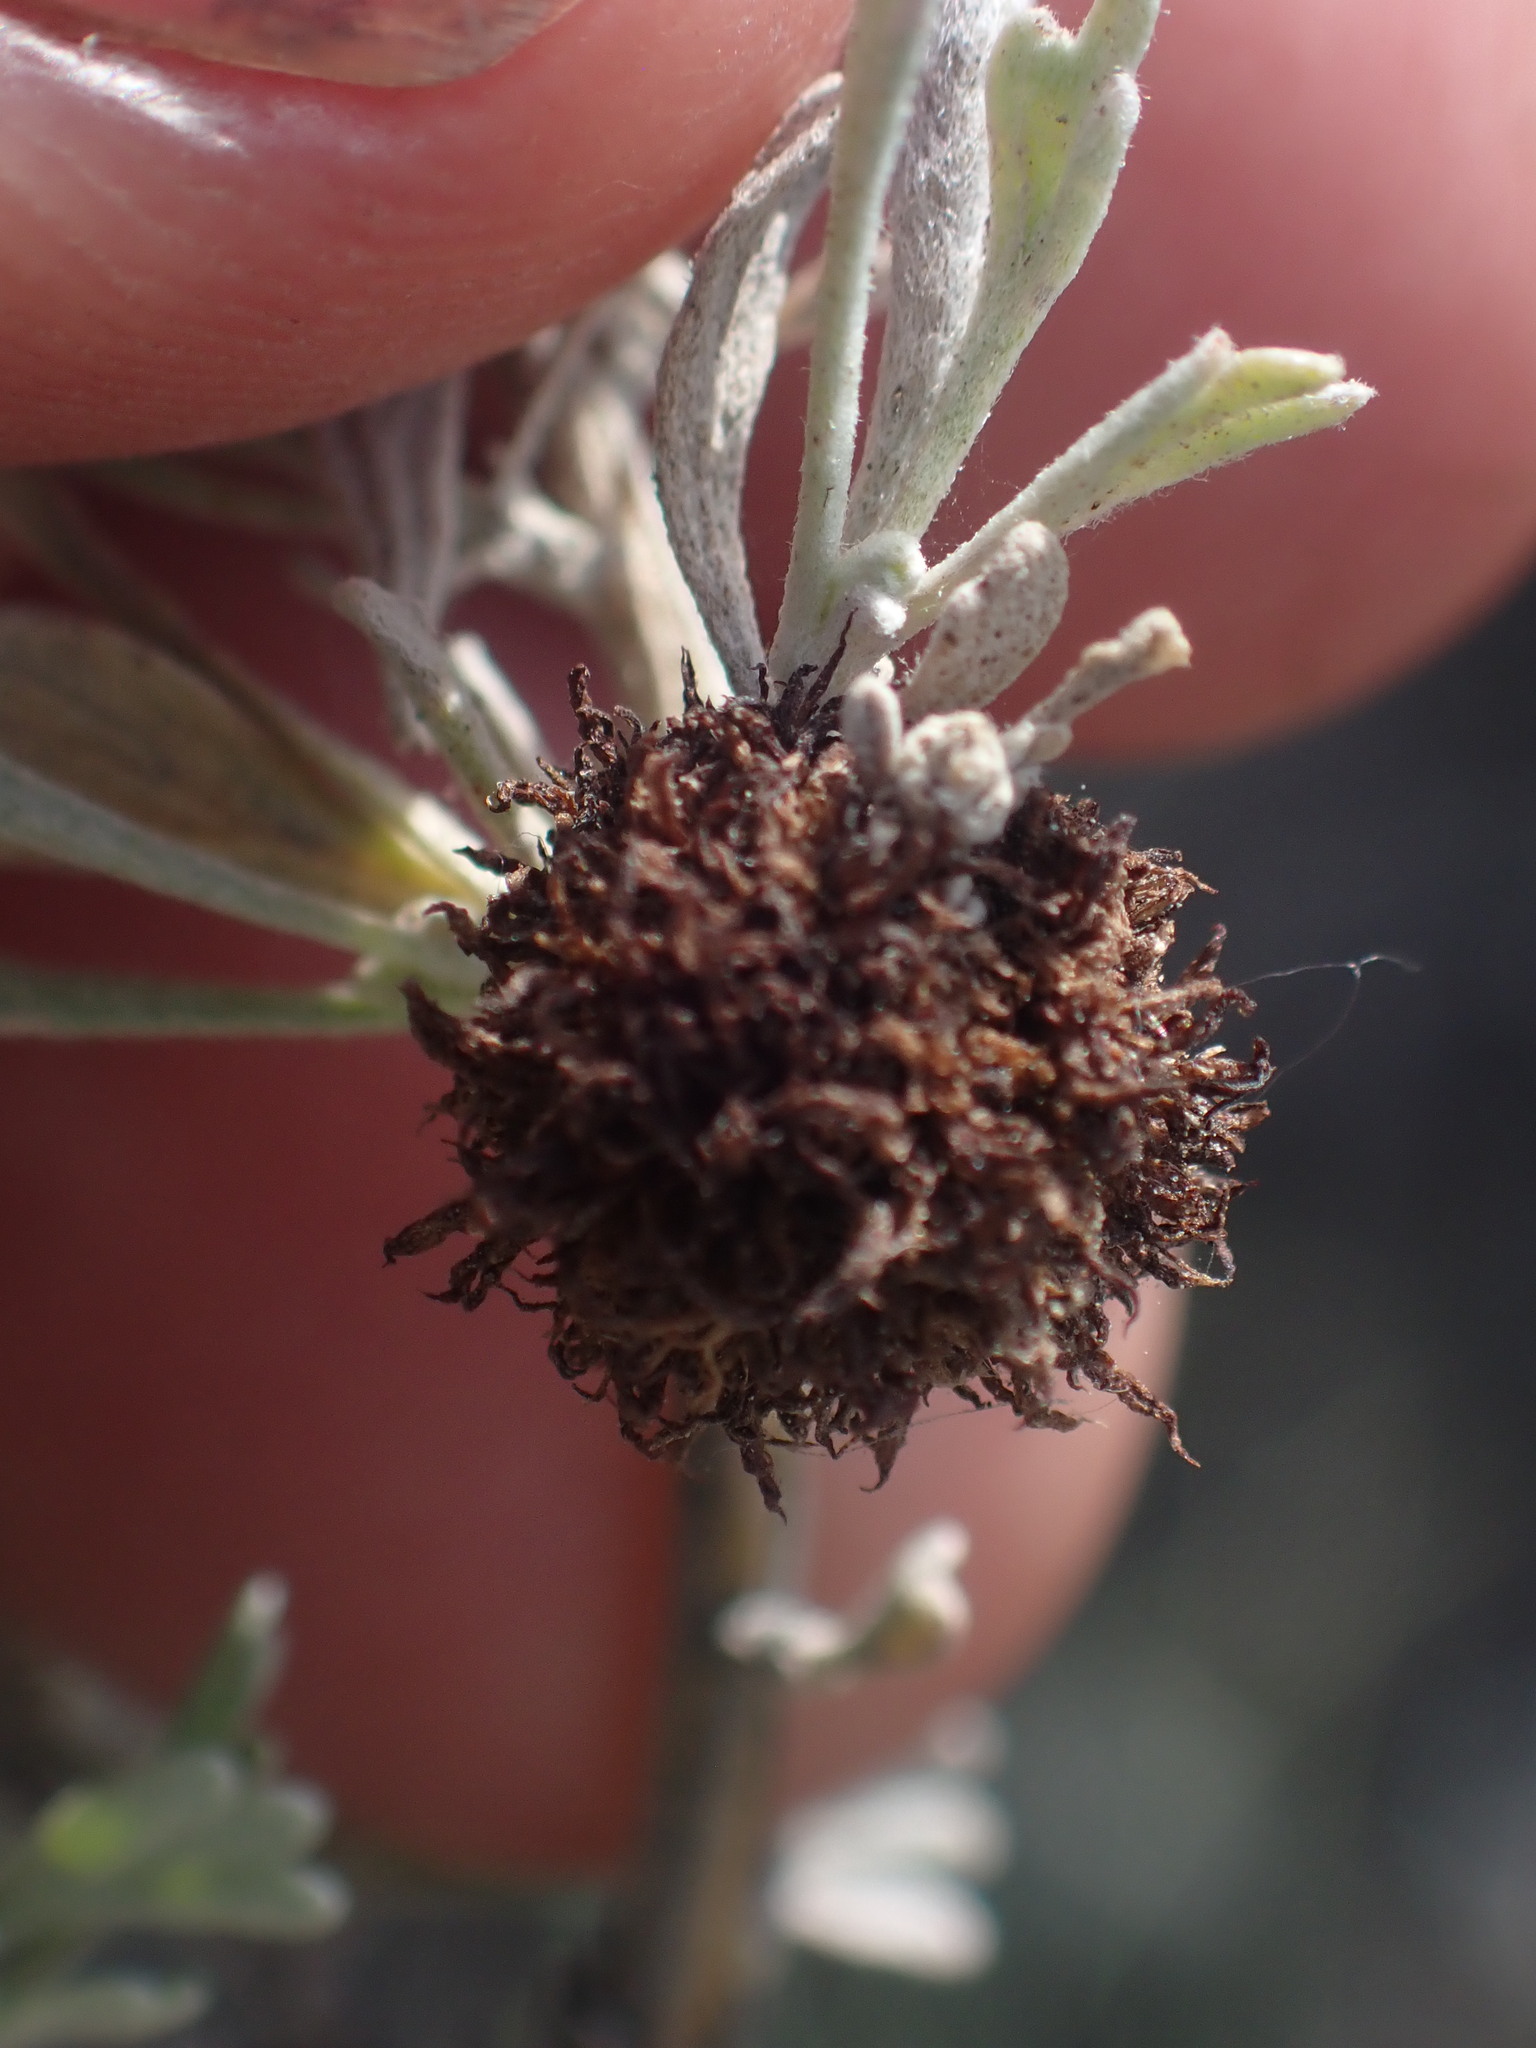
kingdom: Animalia
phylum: Arthropoda
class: Insecta
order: Diptera
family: Cecidomyiidae
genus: Rhopalomyia
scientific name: Rhopalomyia medusa
